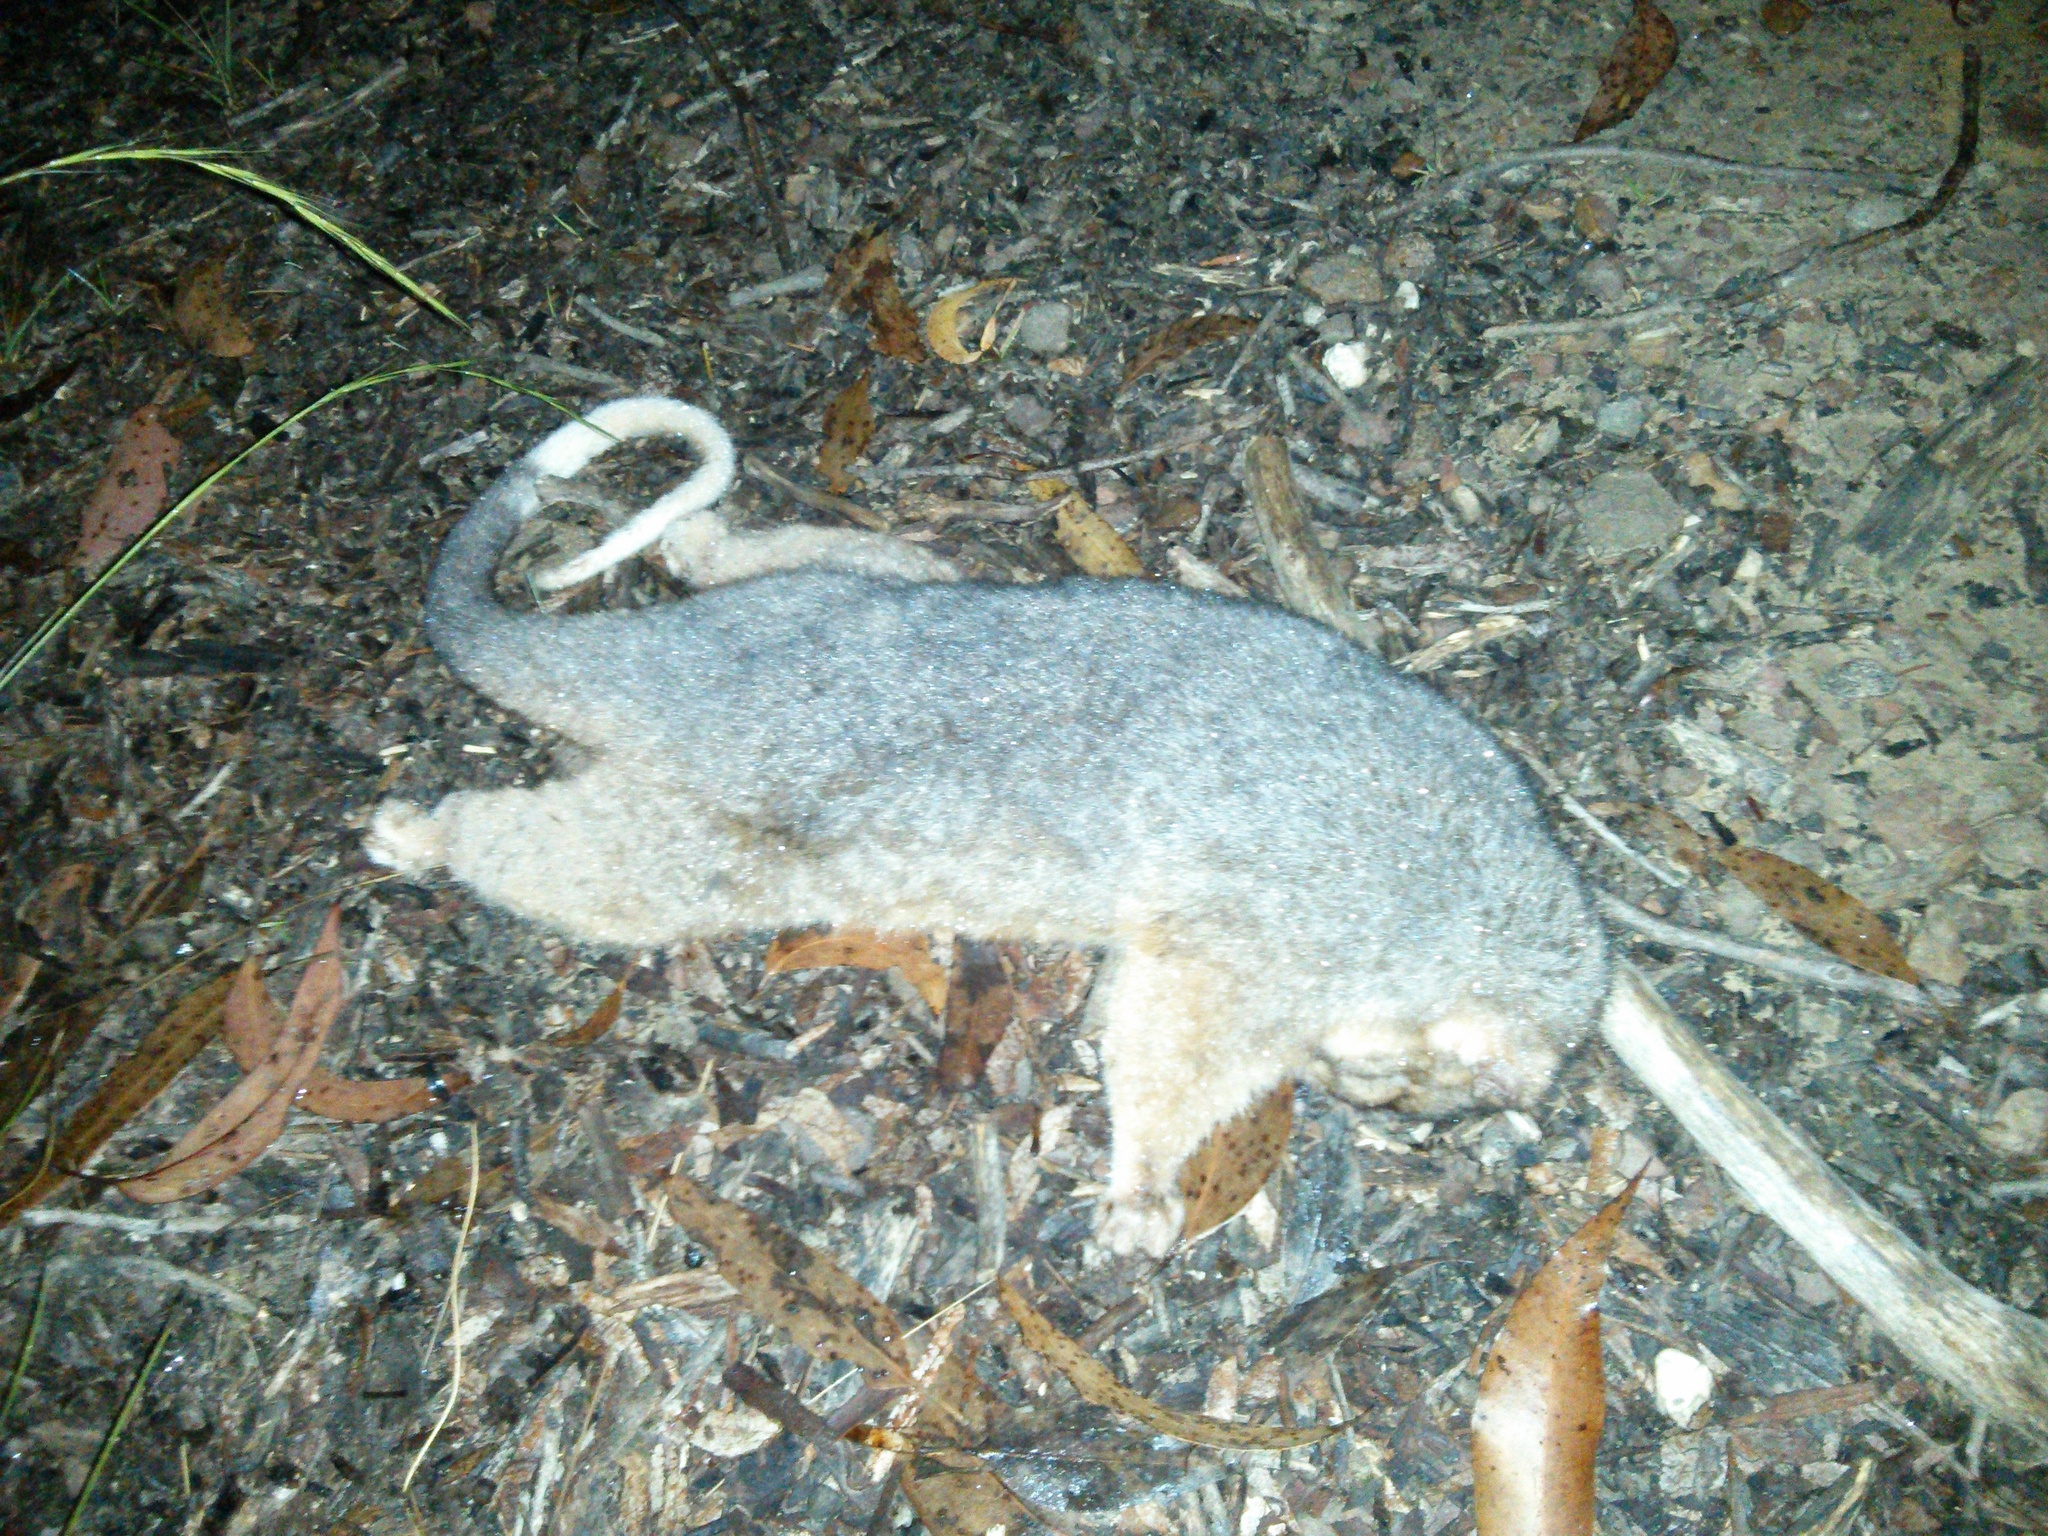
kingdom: Animalia
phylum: Chordata
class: Mammalia
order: Diprotodontia
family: Pseudocheiridae
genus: Pseudocheirus
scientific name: Pseudocheirus peregrinus
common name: Common ringtail possum
